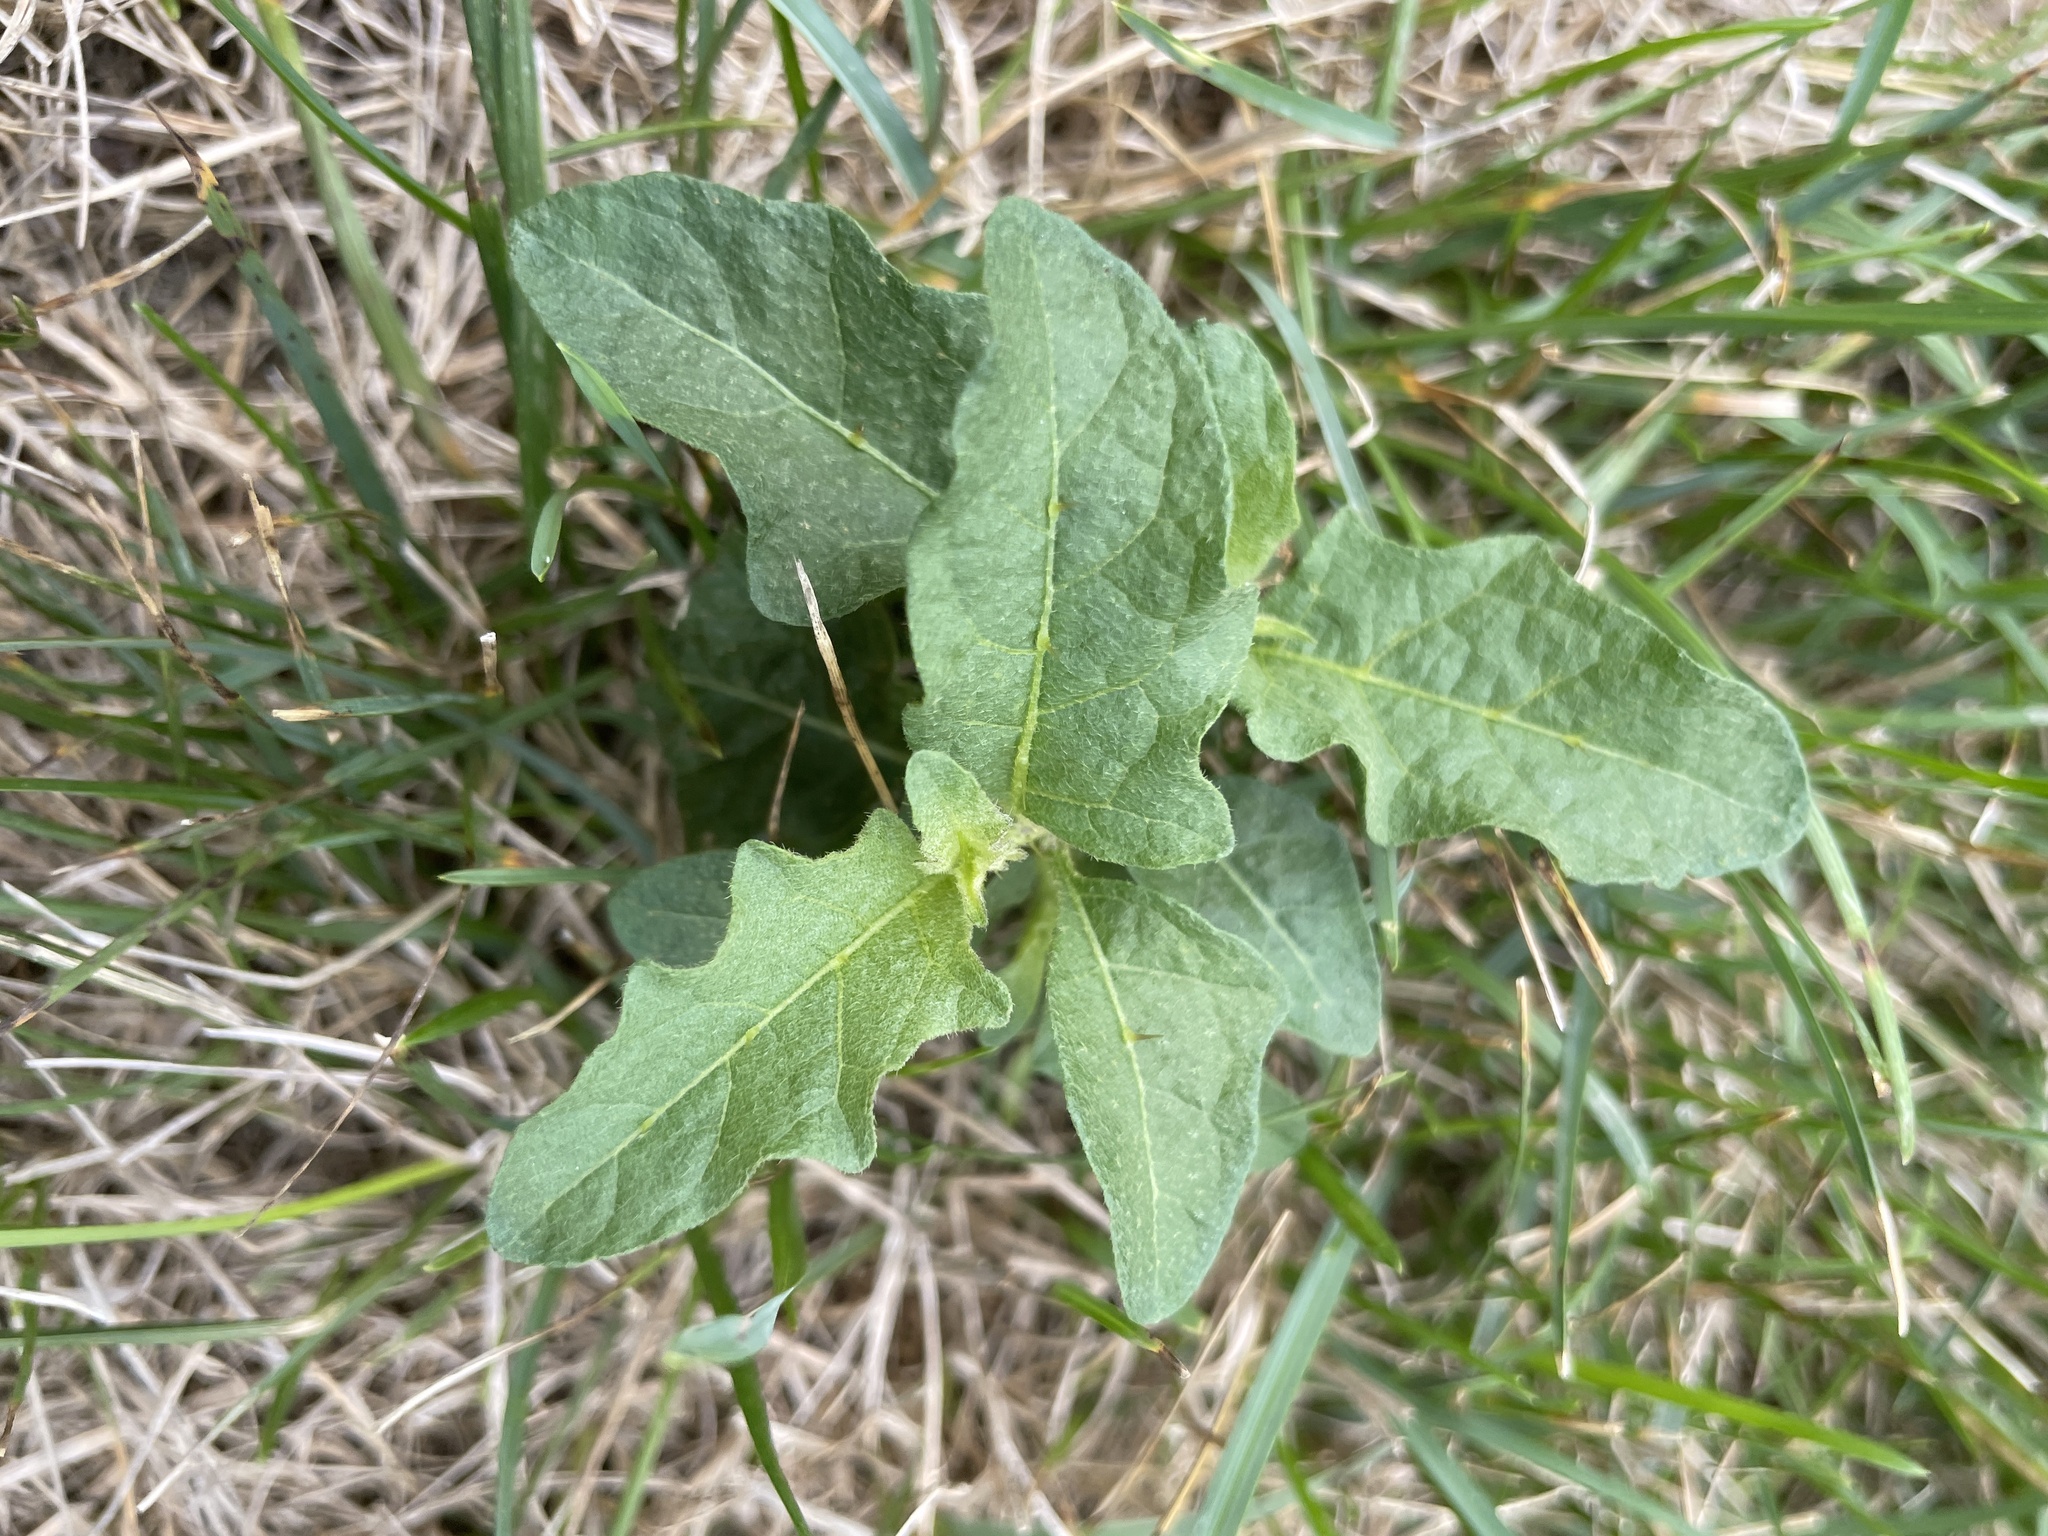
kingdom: Plantae
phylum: Tracheophyta
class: Magnoliopsida
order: Solanales
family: Solanaceae
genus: Solanum
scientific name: Solanum carolinense
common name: Horse-nettle
